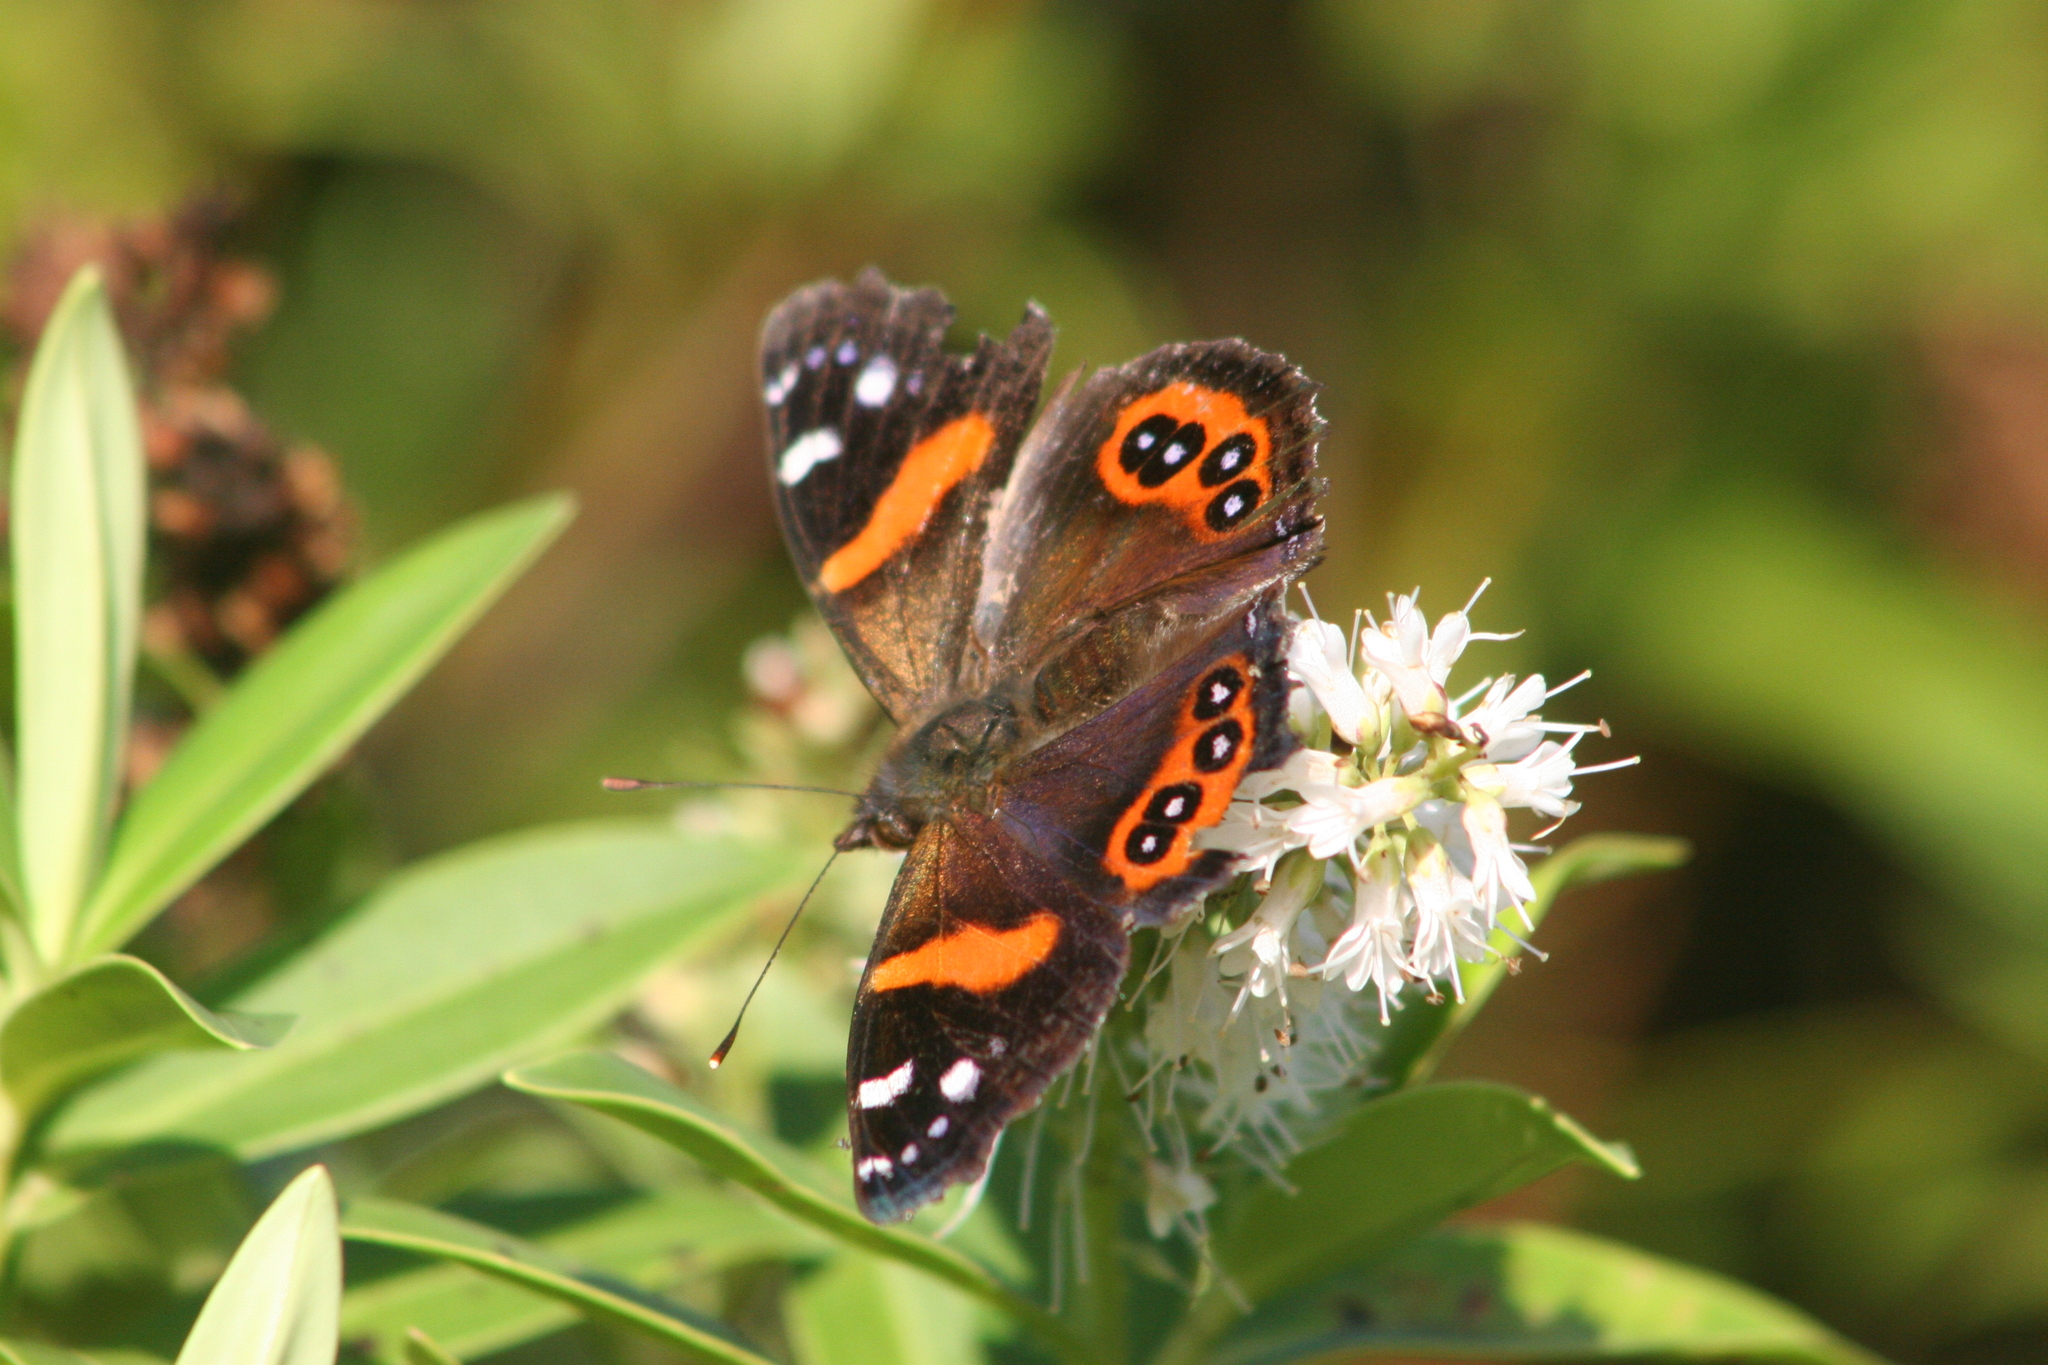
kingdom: Animalia
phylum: Arthropoda
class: Insecta
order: Lepidoptera
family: Nymphalidae
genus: Vanessa
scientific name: Vanessa gonerilla
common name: New zealand red admiral
